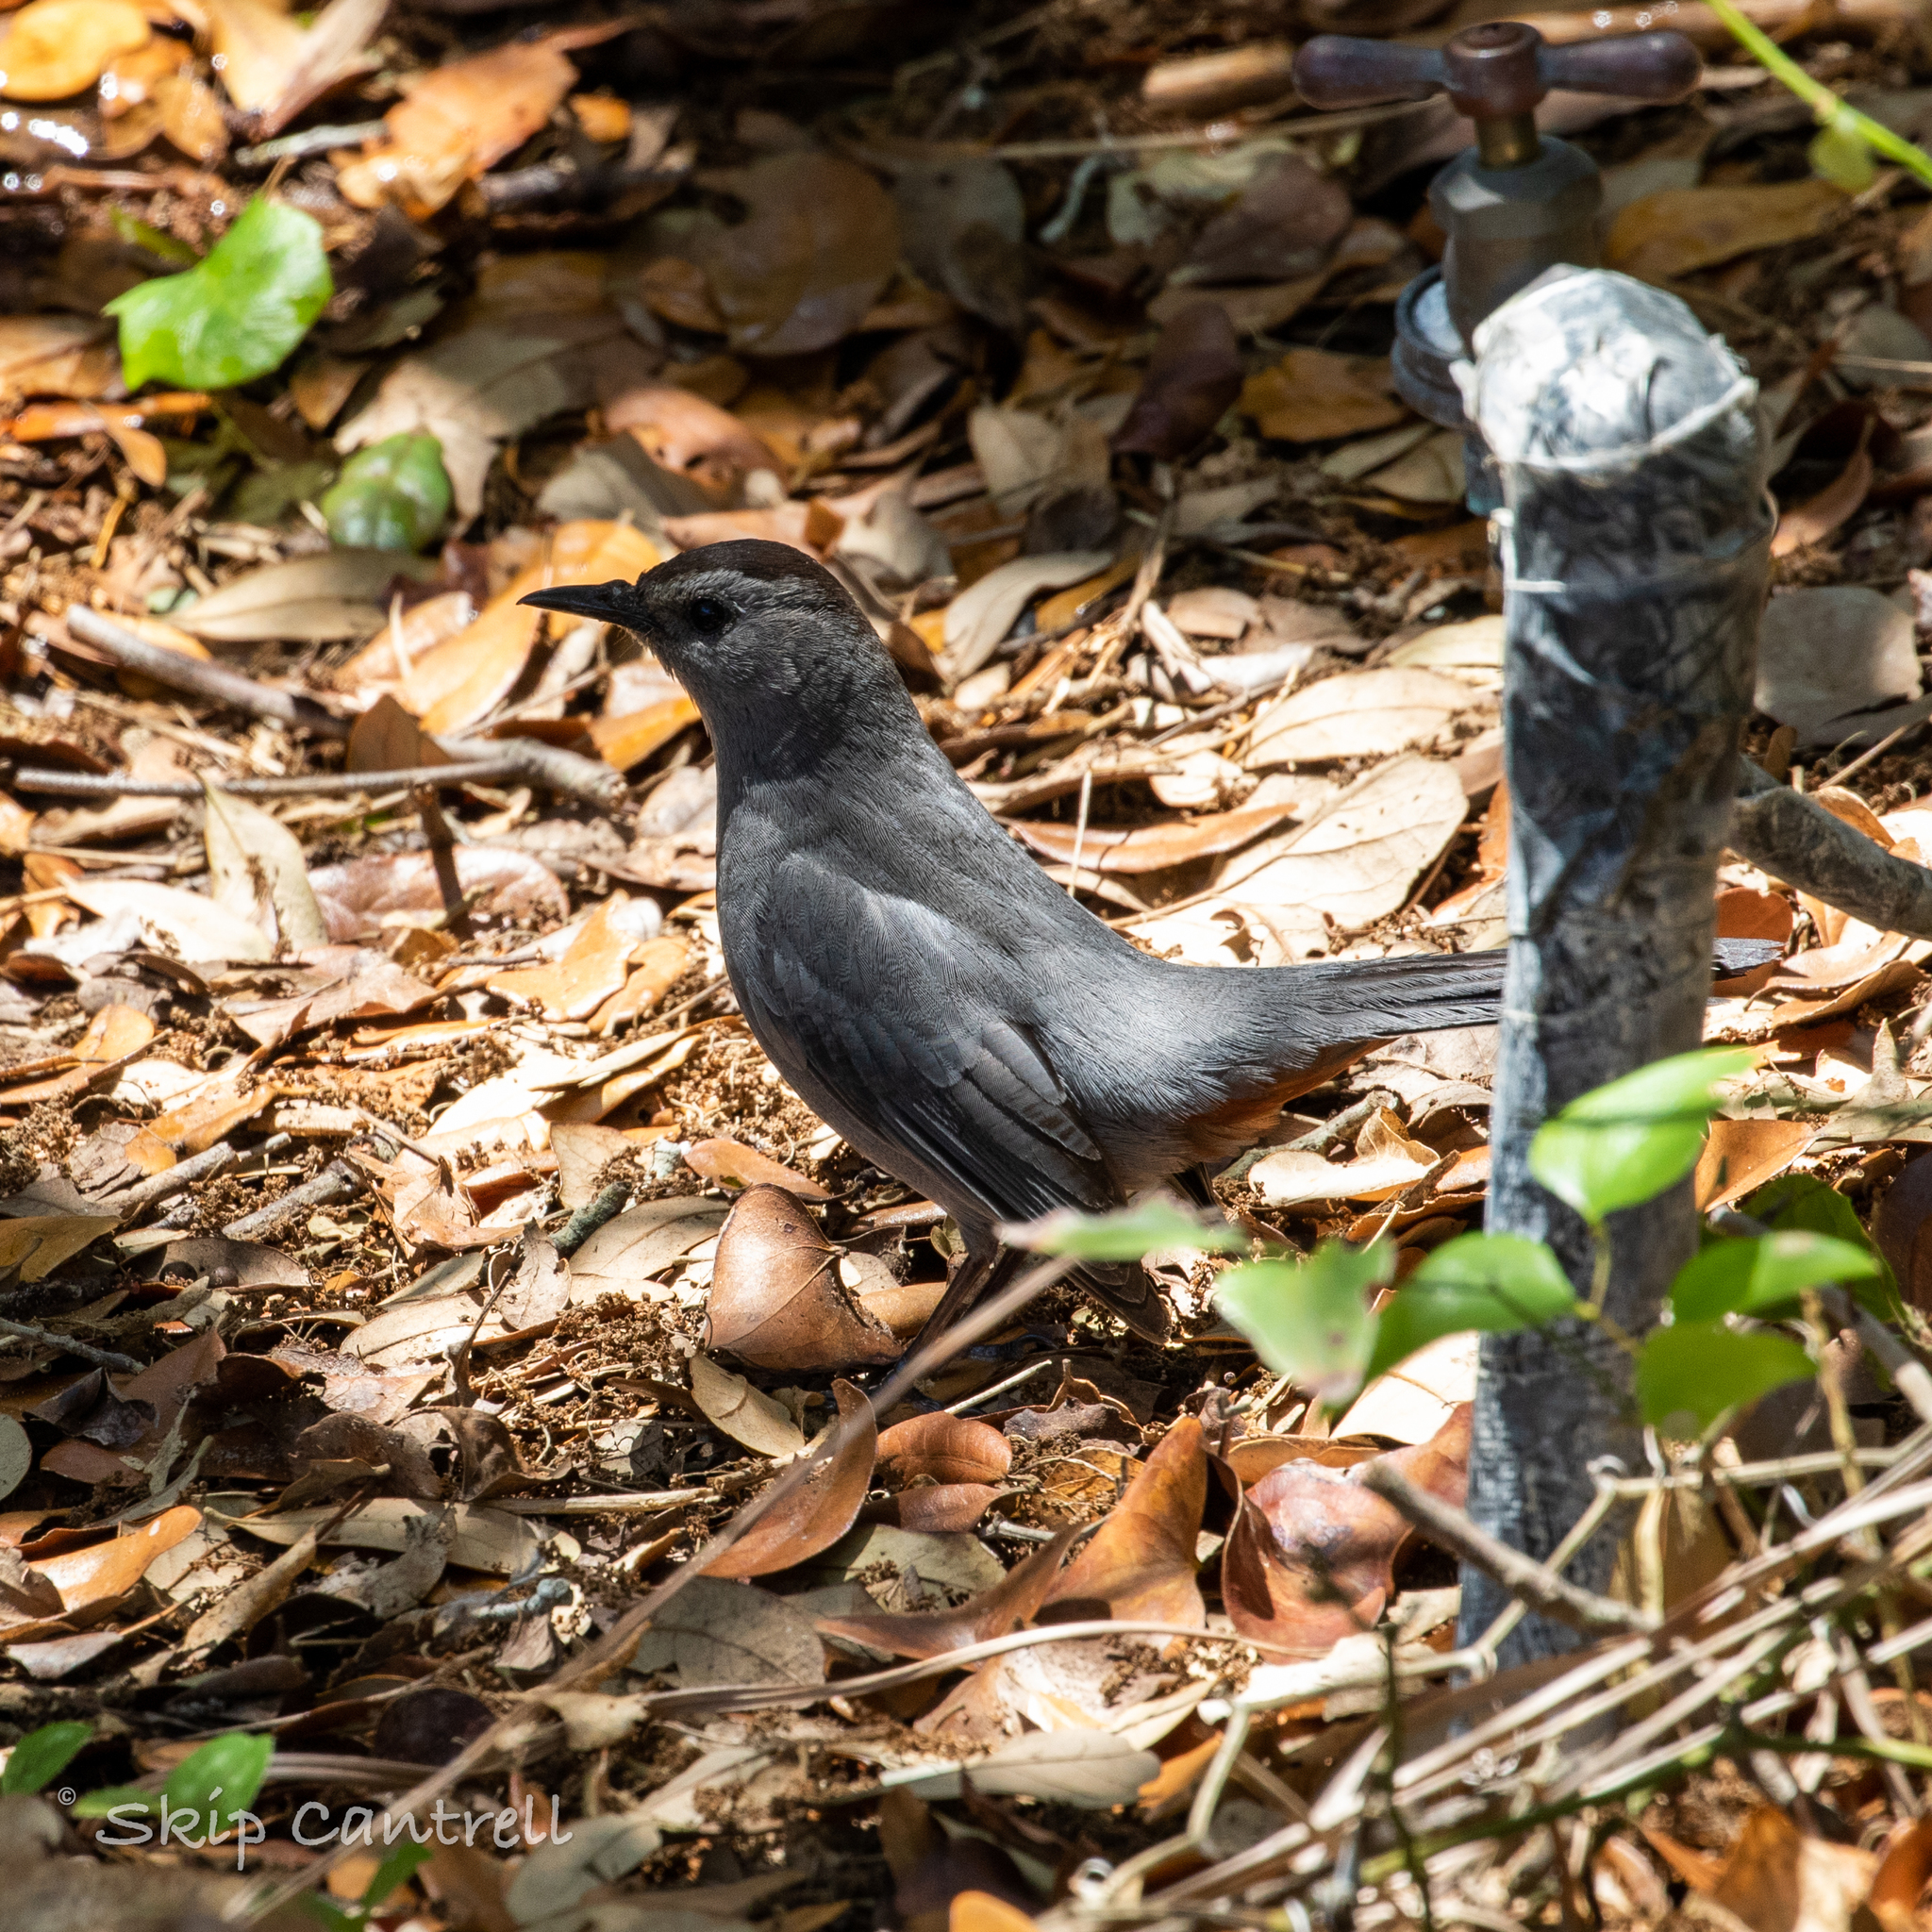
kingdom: Animalia
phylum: Chordata
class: Aves
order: Passeriformes
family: Mimidae
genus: Dumetella
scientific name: Dumetella carolinensis
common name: Gray catbird
